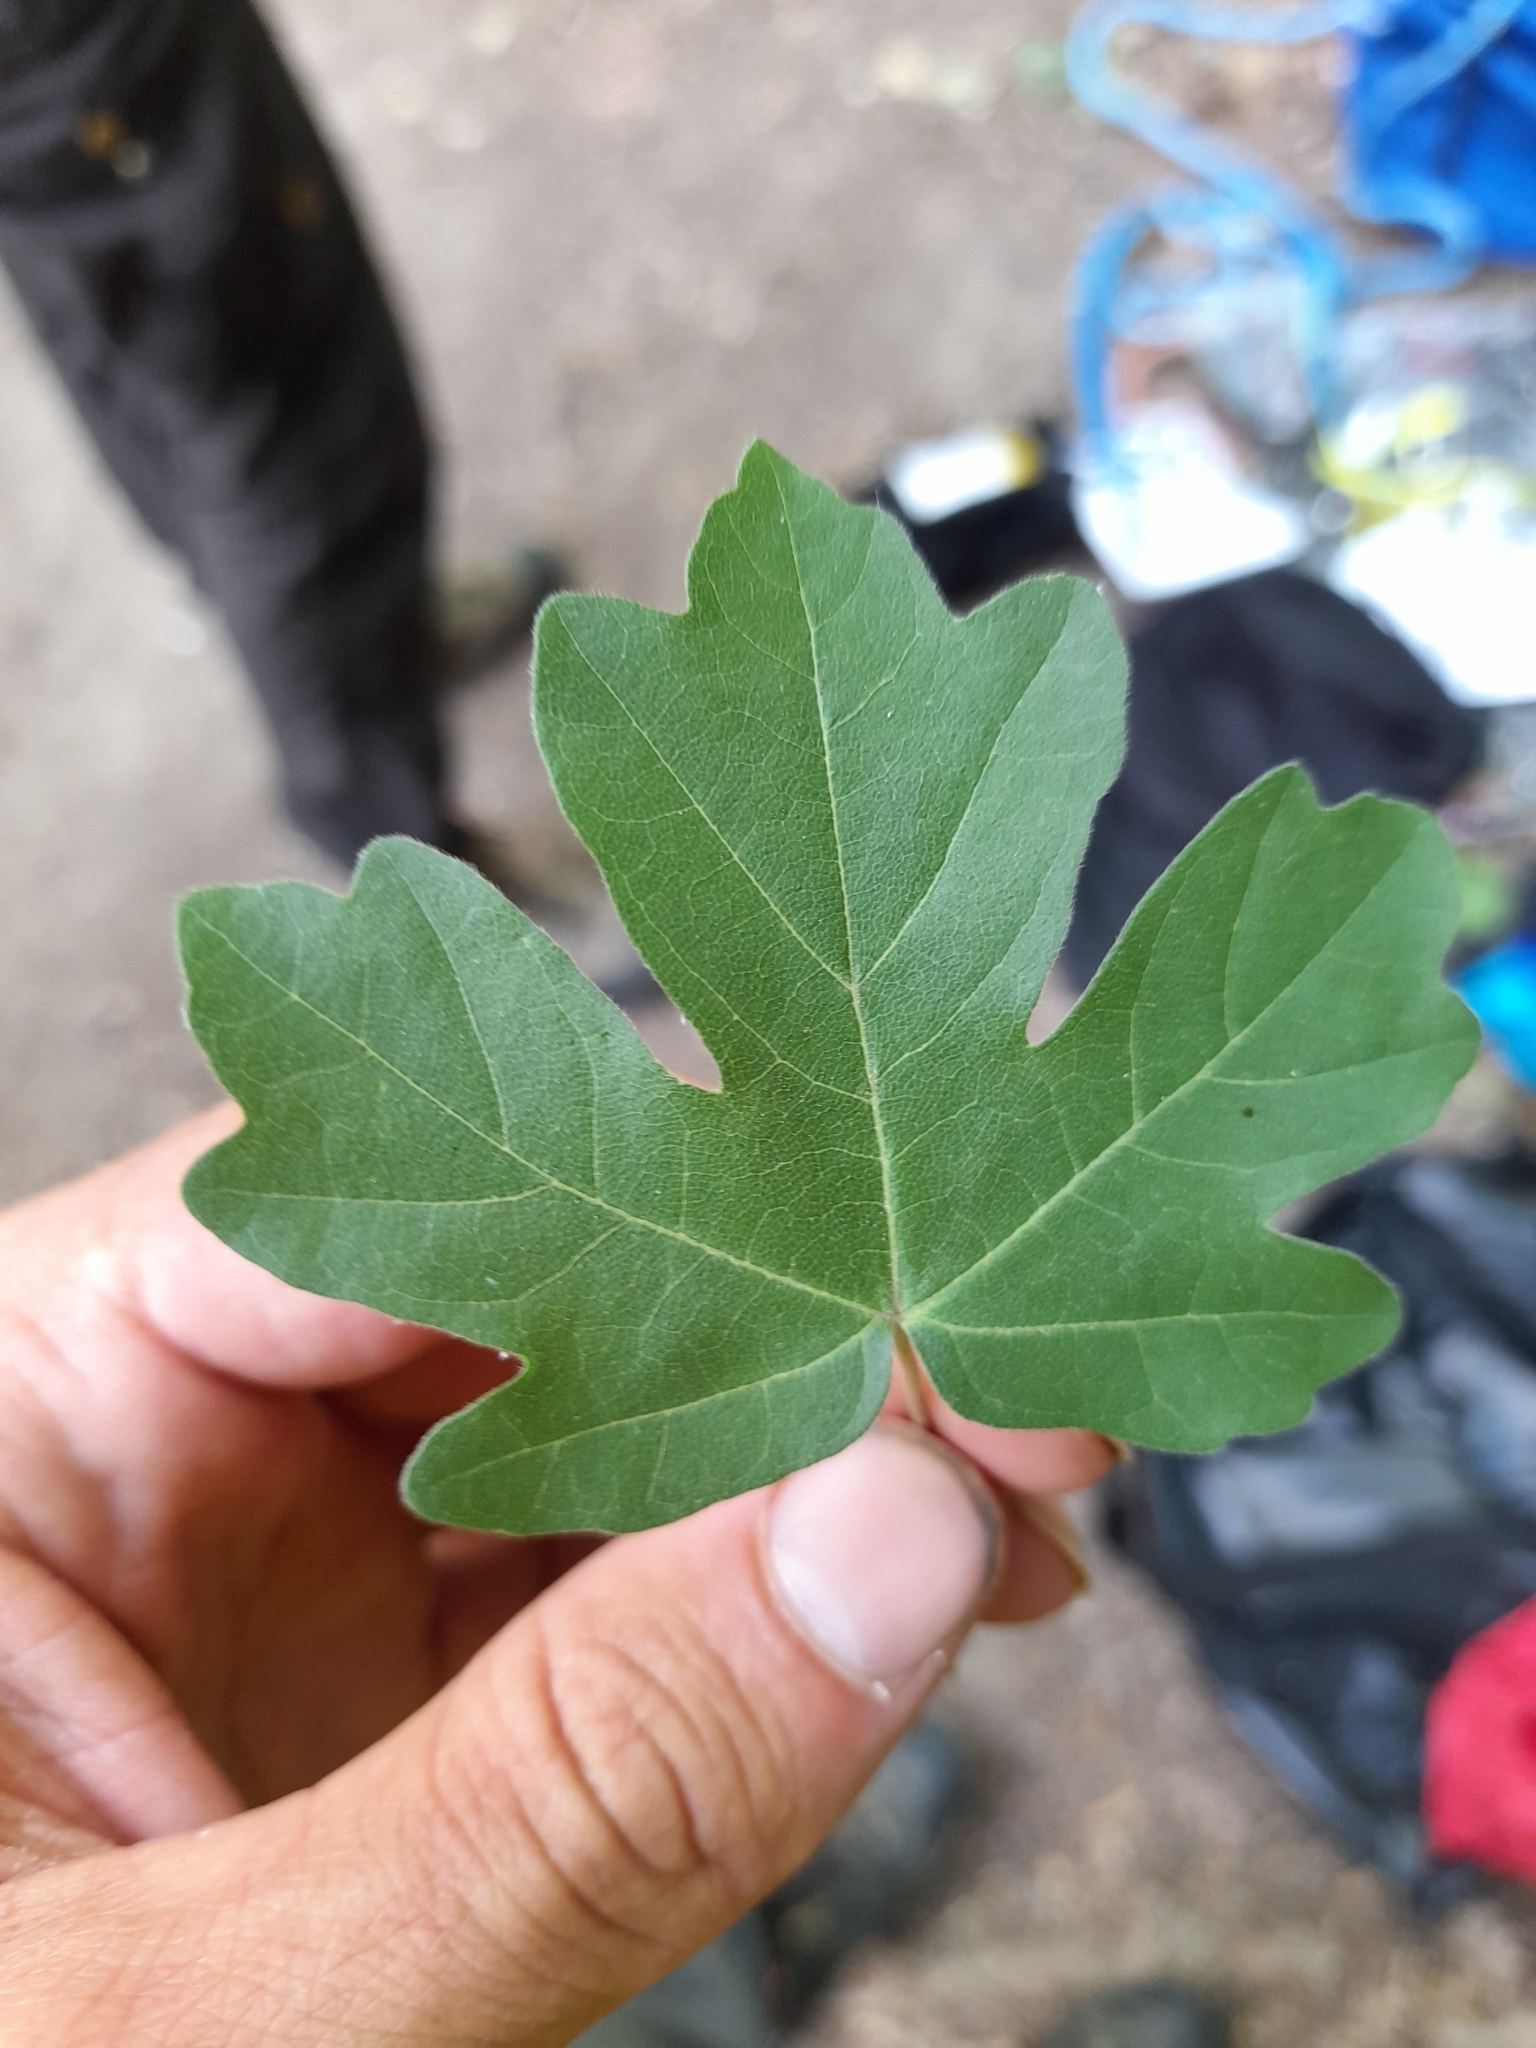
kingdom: Plantae
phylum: Tracheophyta
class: Magnoliopsida
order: Sapindales
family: Sapindaceae
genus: Acer
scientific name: Acer campestre
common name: Field maple
